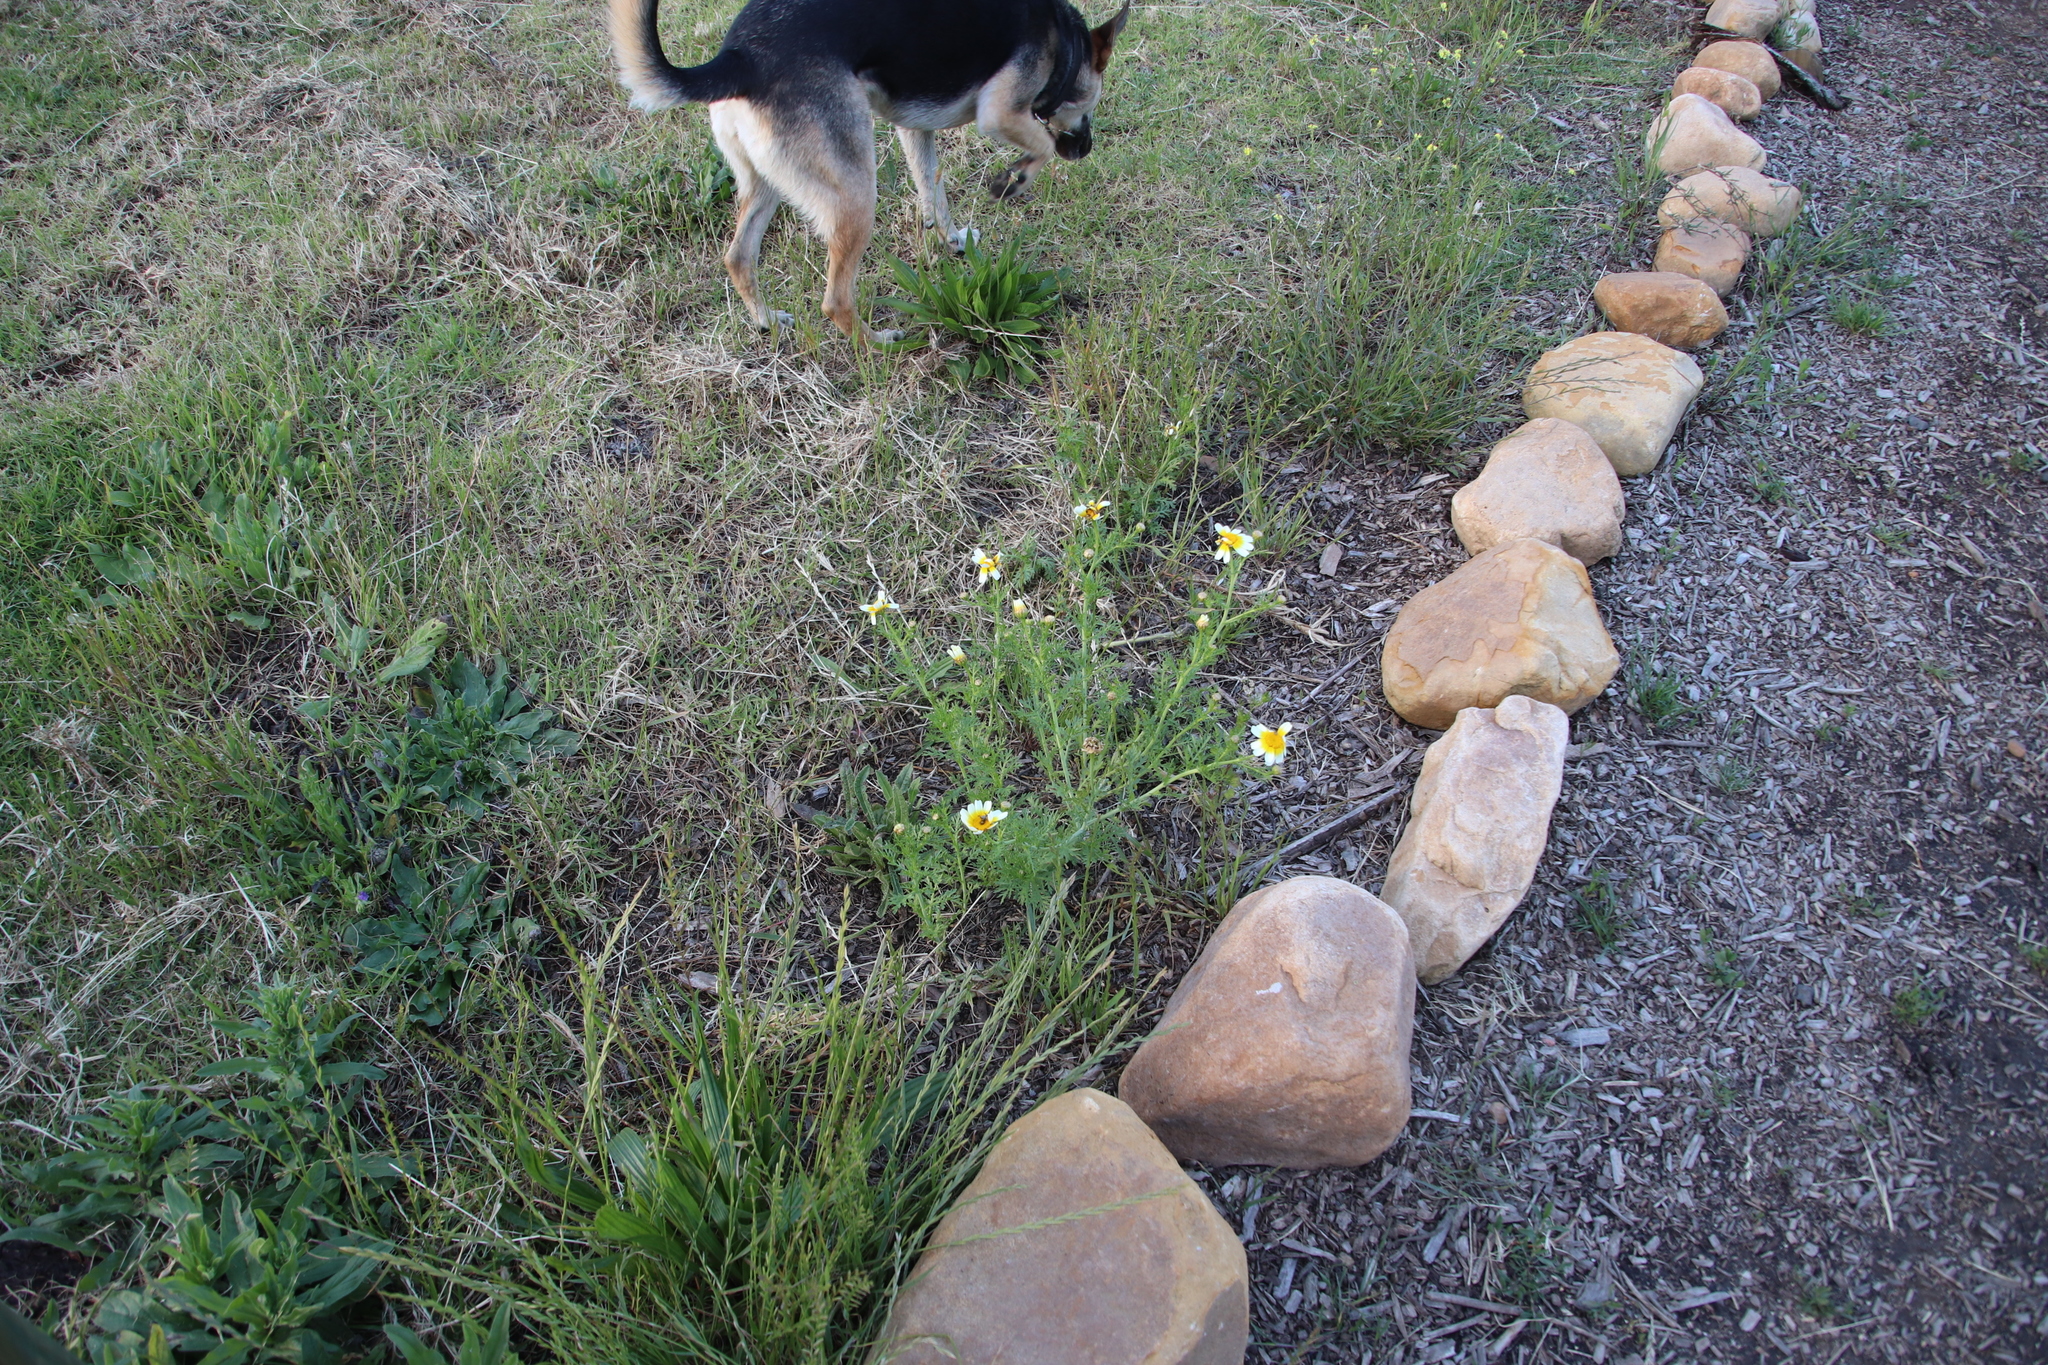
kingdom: Plantae
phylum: Tracheophyta
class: Magnoliopsida
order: Asterales
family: Asteraceae
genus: Glebionis
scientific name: Glebionis coronaria
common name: Crowndaisy
